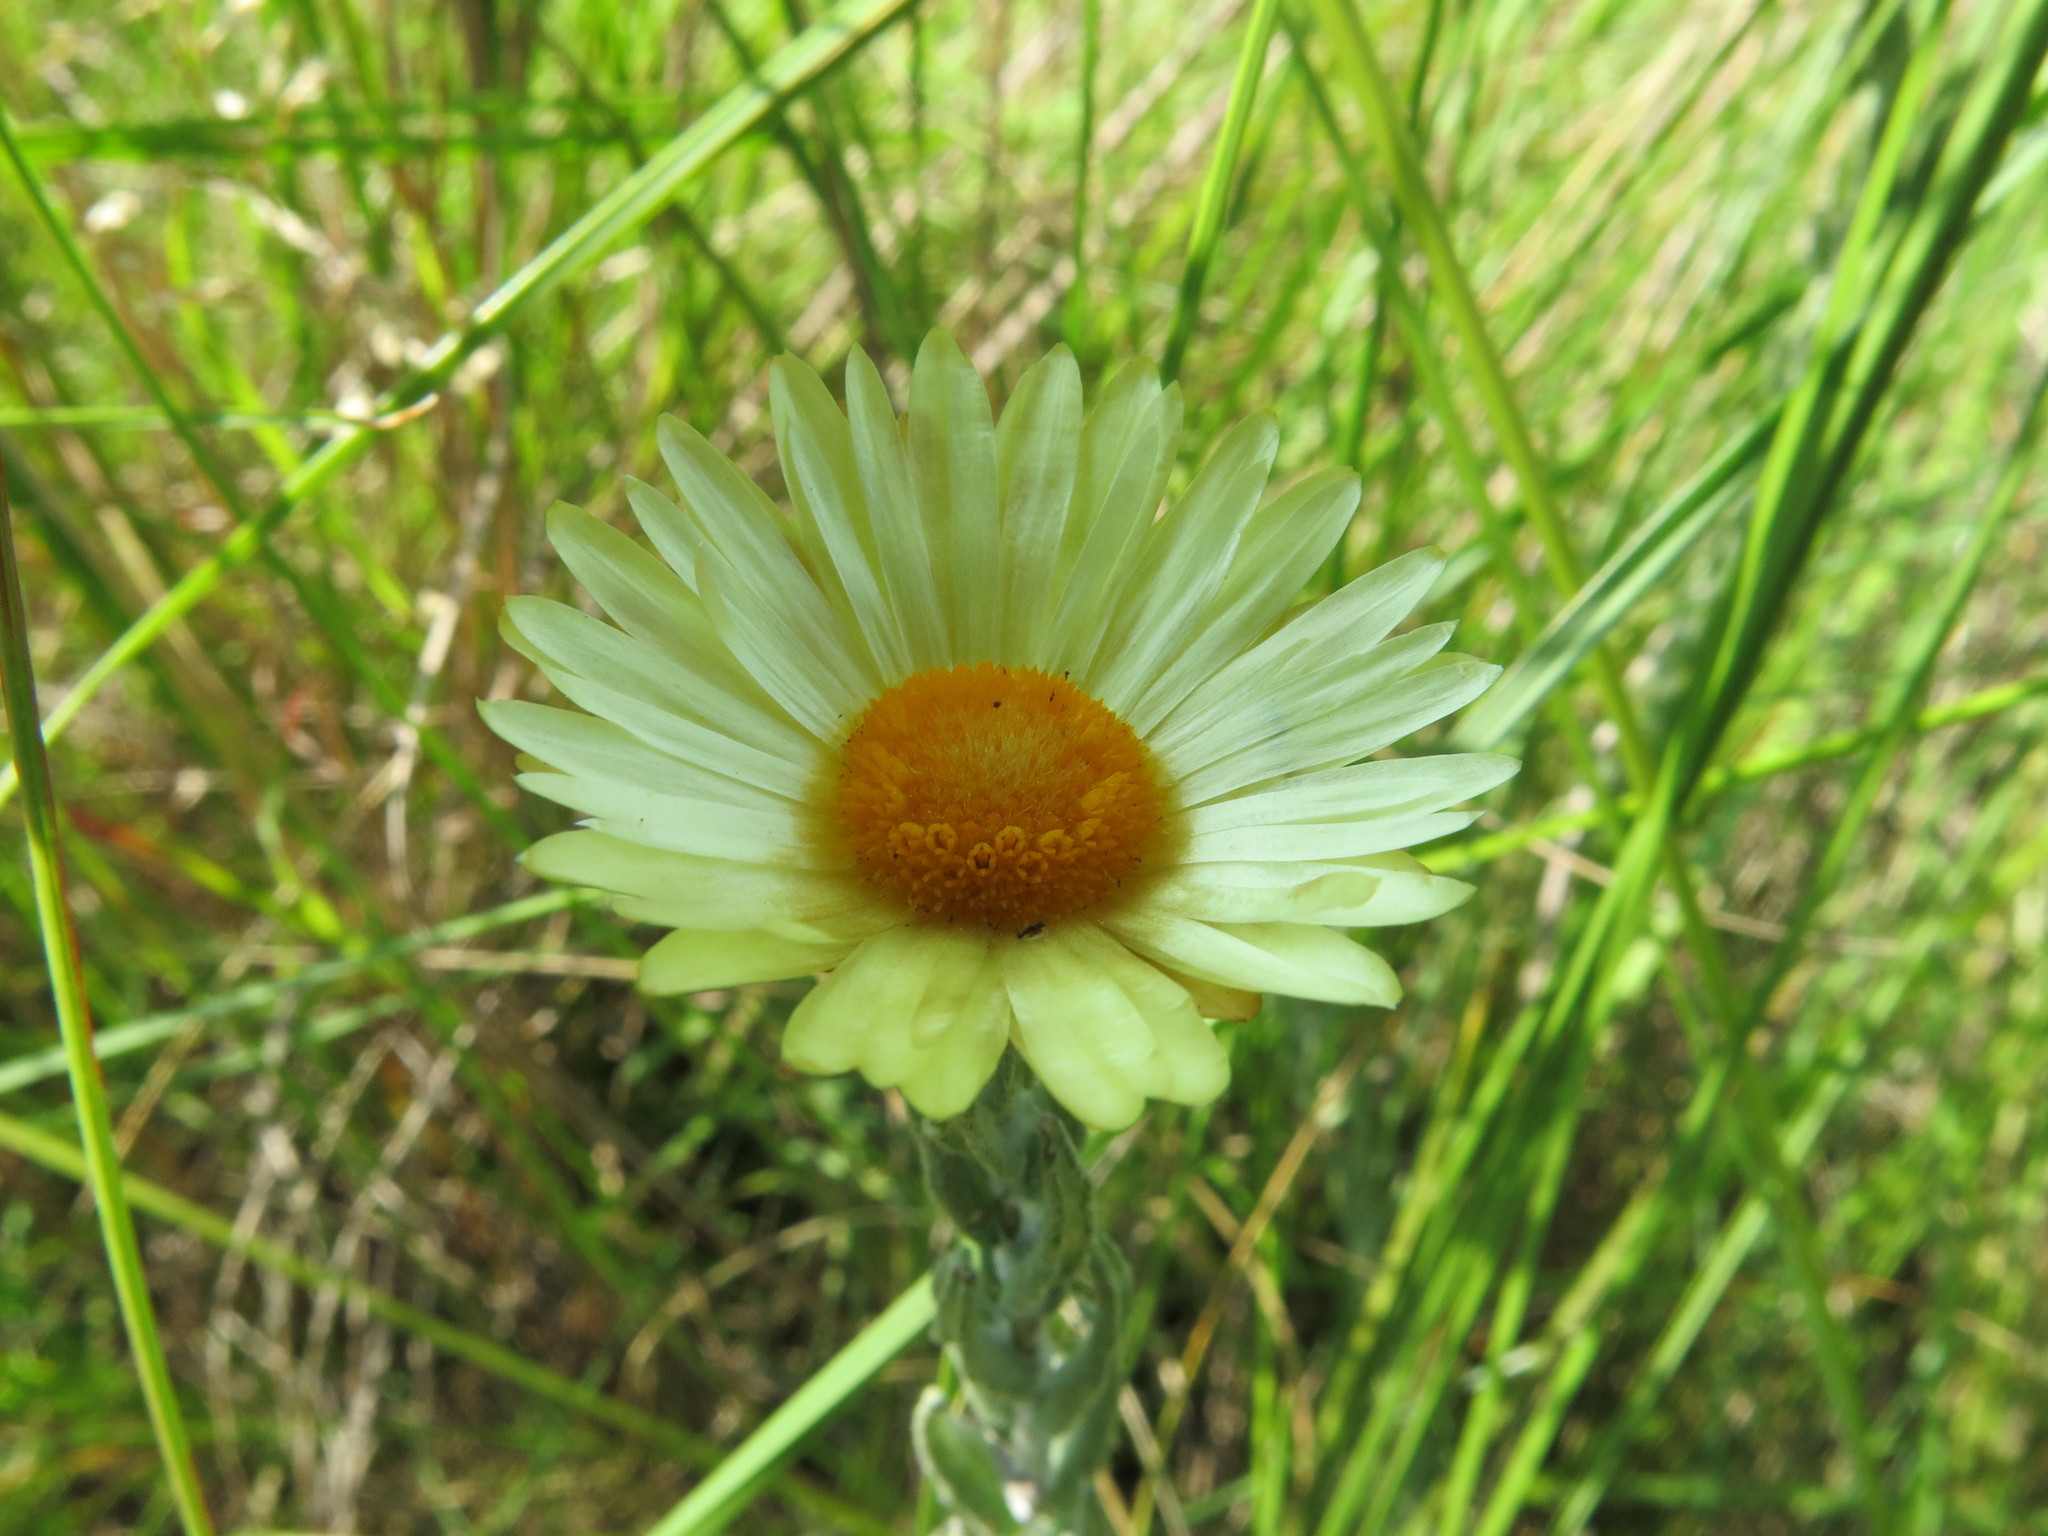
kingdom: Plantae
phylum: Tracheophyta
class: Magnoliopsida
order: Asterales
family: Asteraceae
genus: Helichrysum
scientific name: Helichrysum herbaceum
